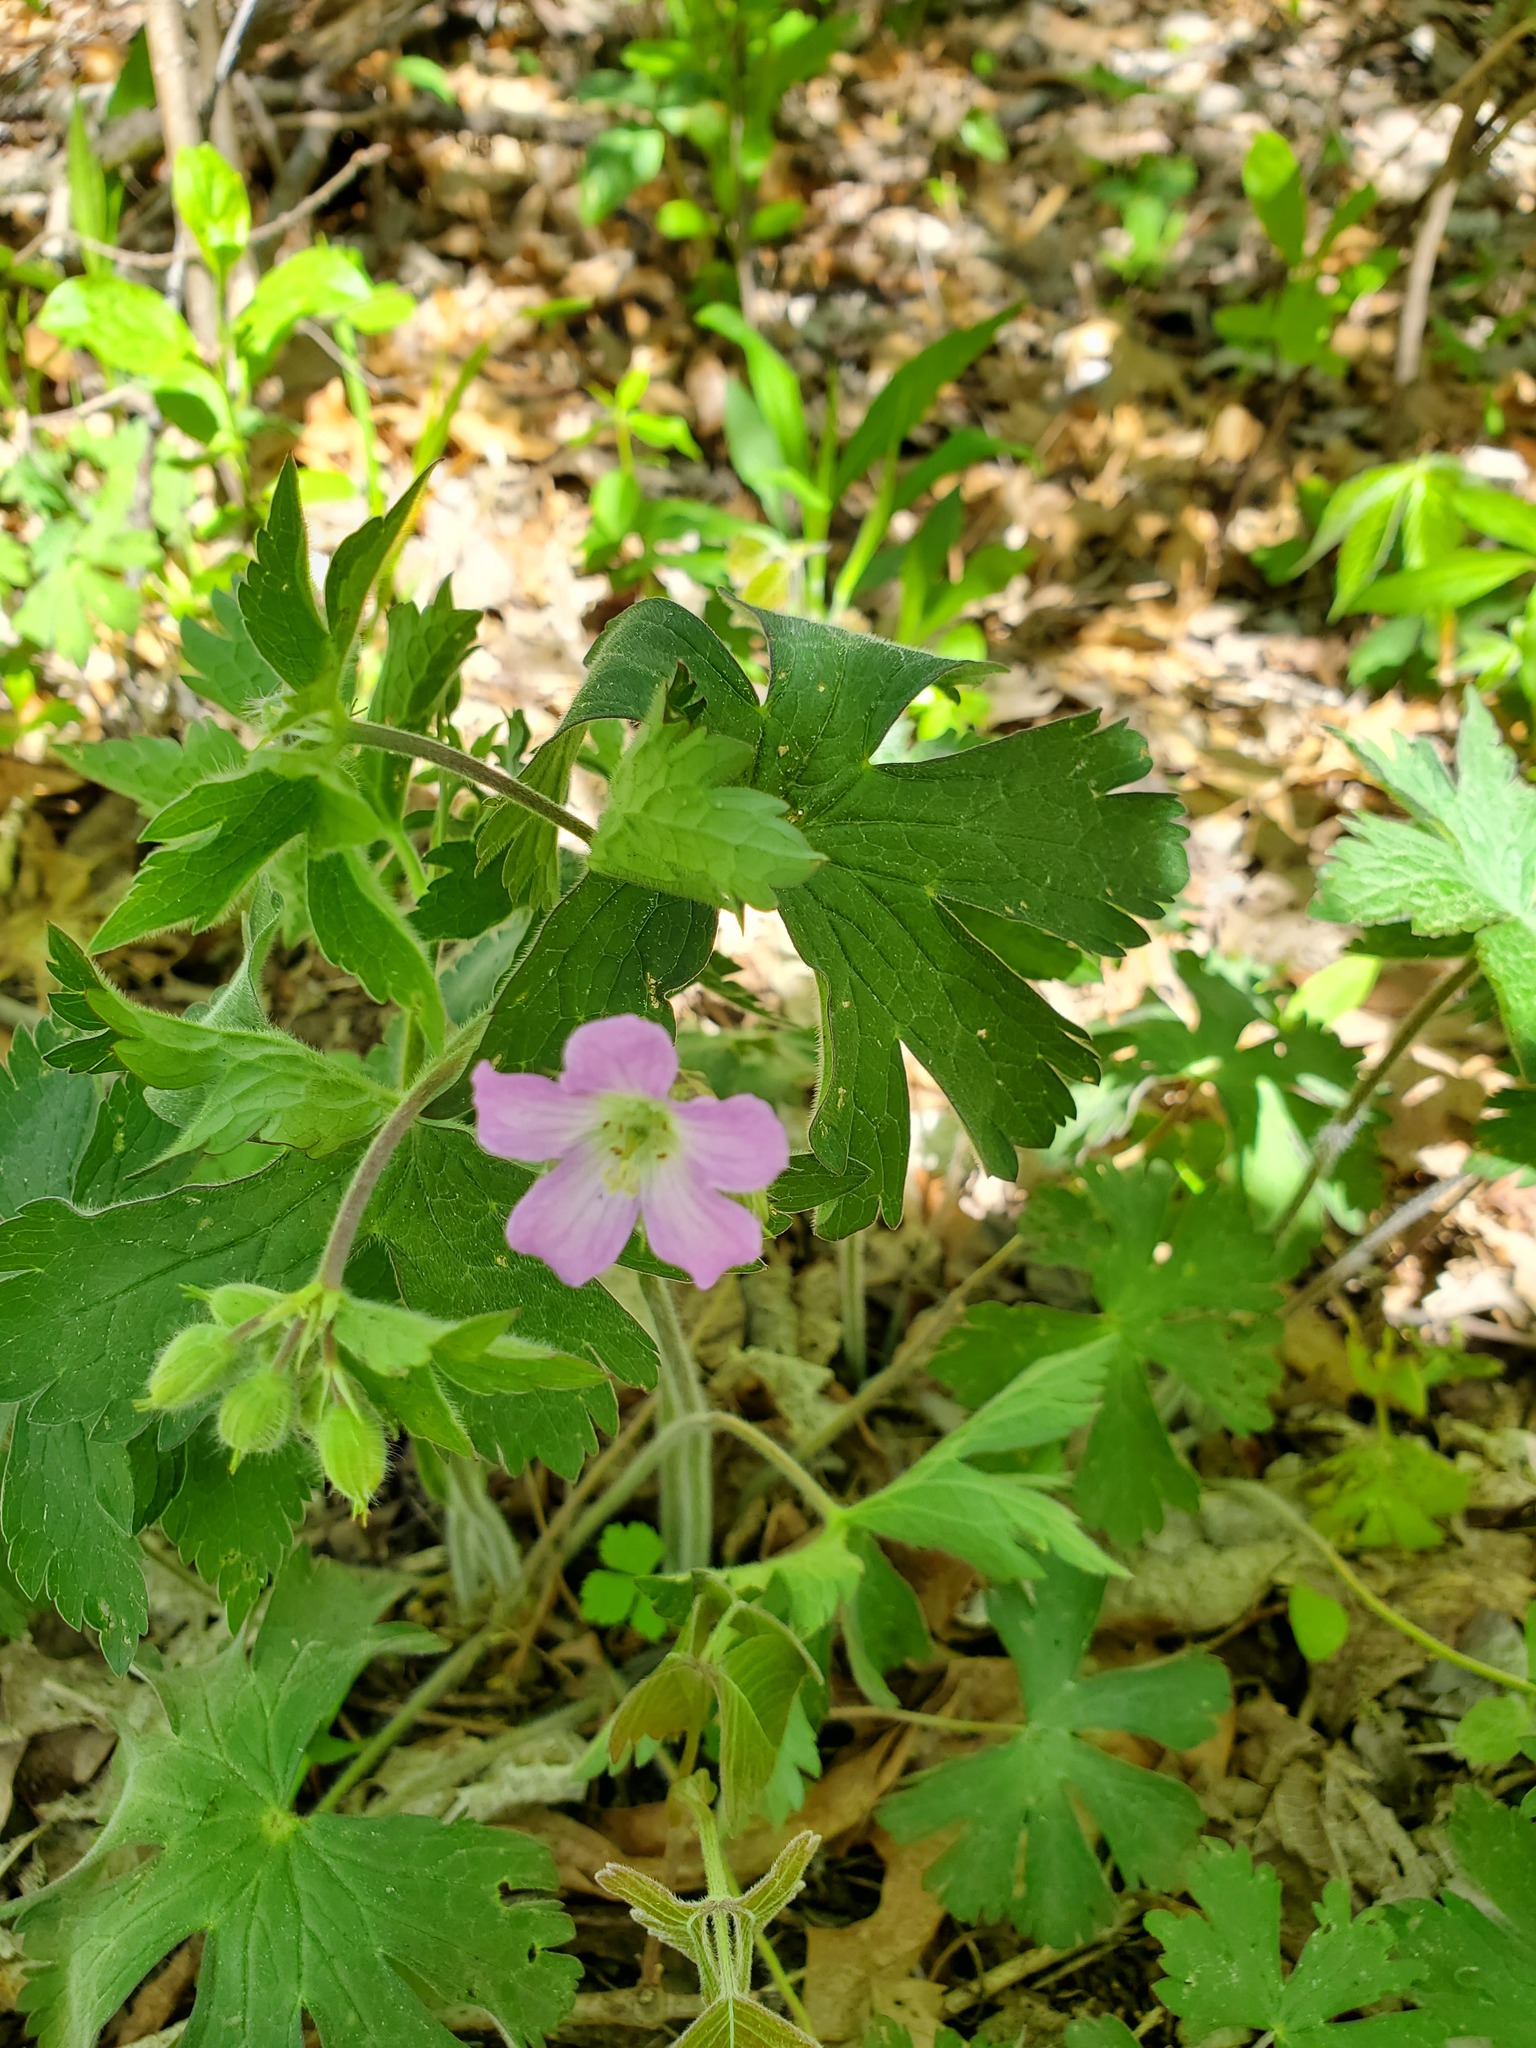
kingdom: Plantae
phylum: Tracheophyta
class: Magnoliopsida
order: Geraniales
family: Geraniaceae
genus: Geranium
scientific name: Geranium maculatum
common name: Spotted geranium
